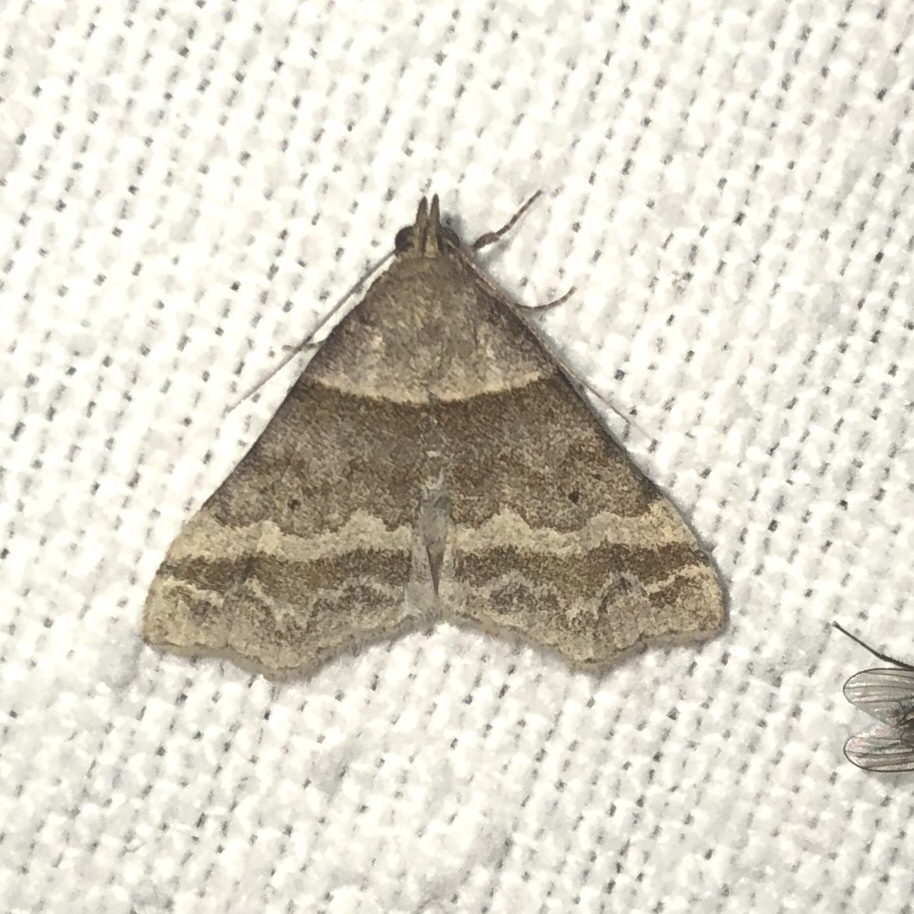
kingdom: Animalia
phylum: Arthropoda
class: Insecta
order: Lepidoptera
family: Erebidae
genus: Phaeolita
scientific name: Phaeolita pyramusalis
